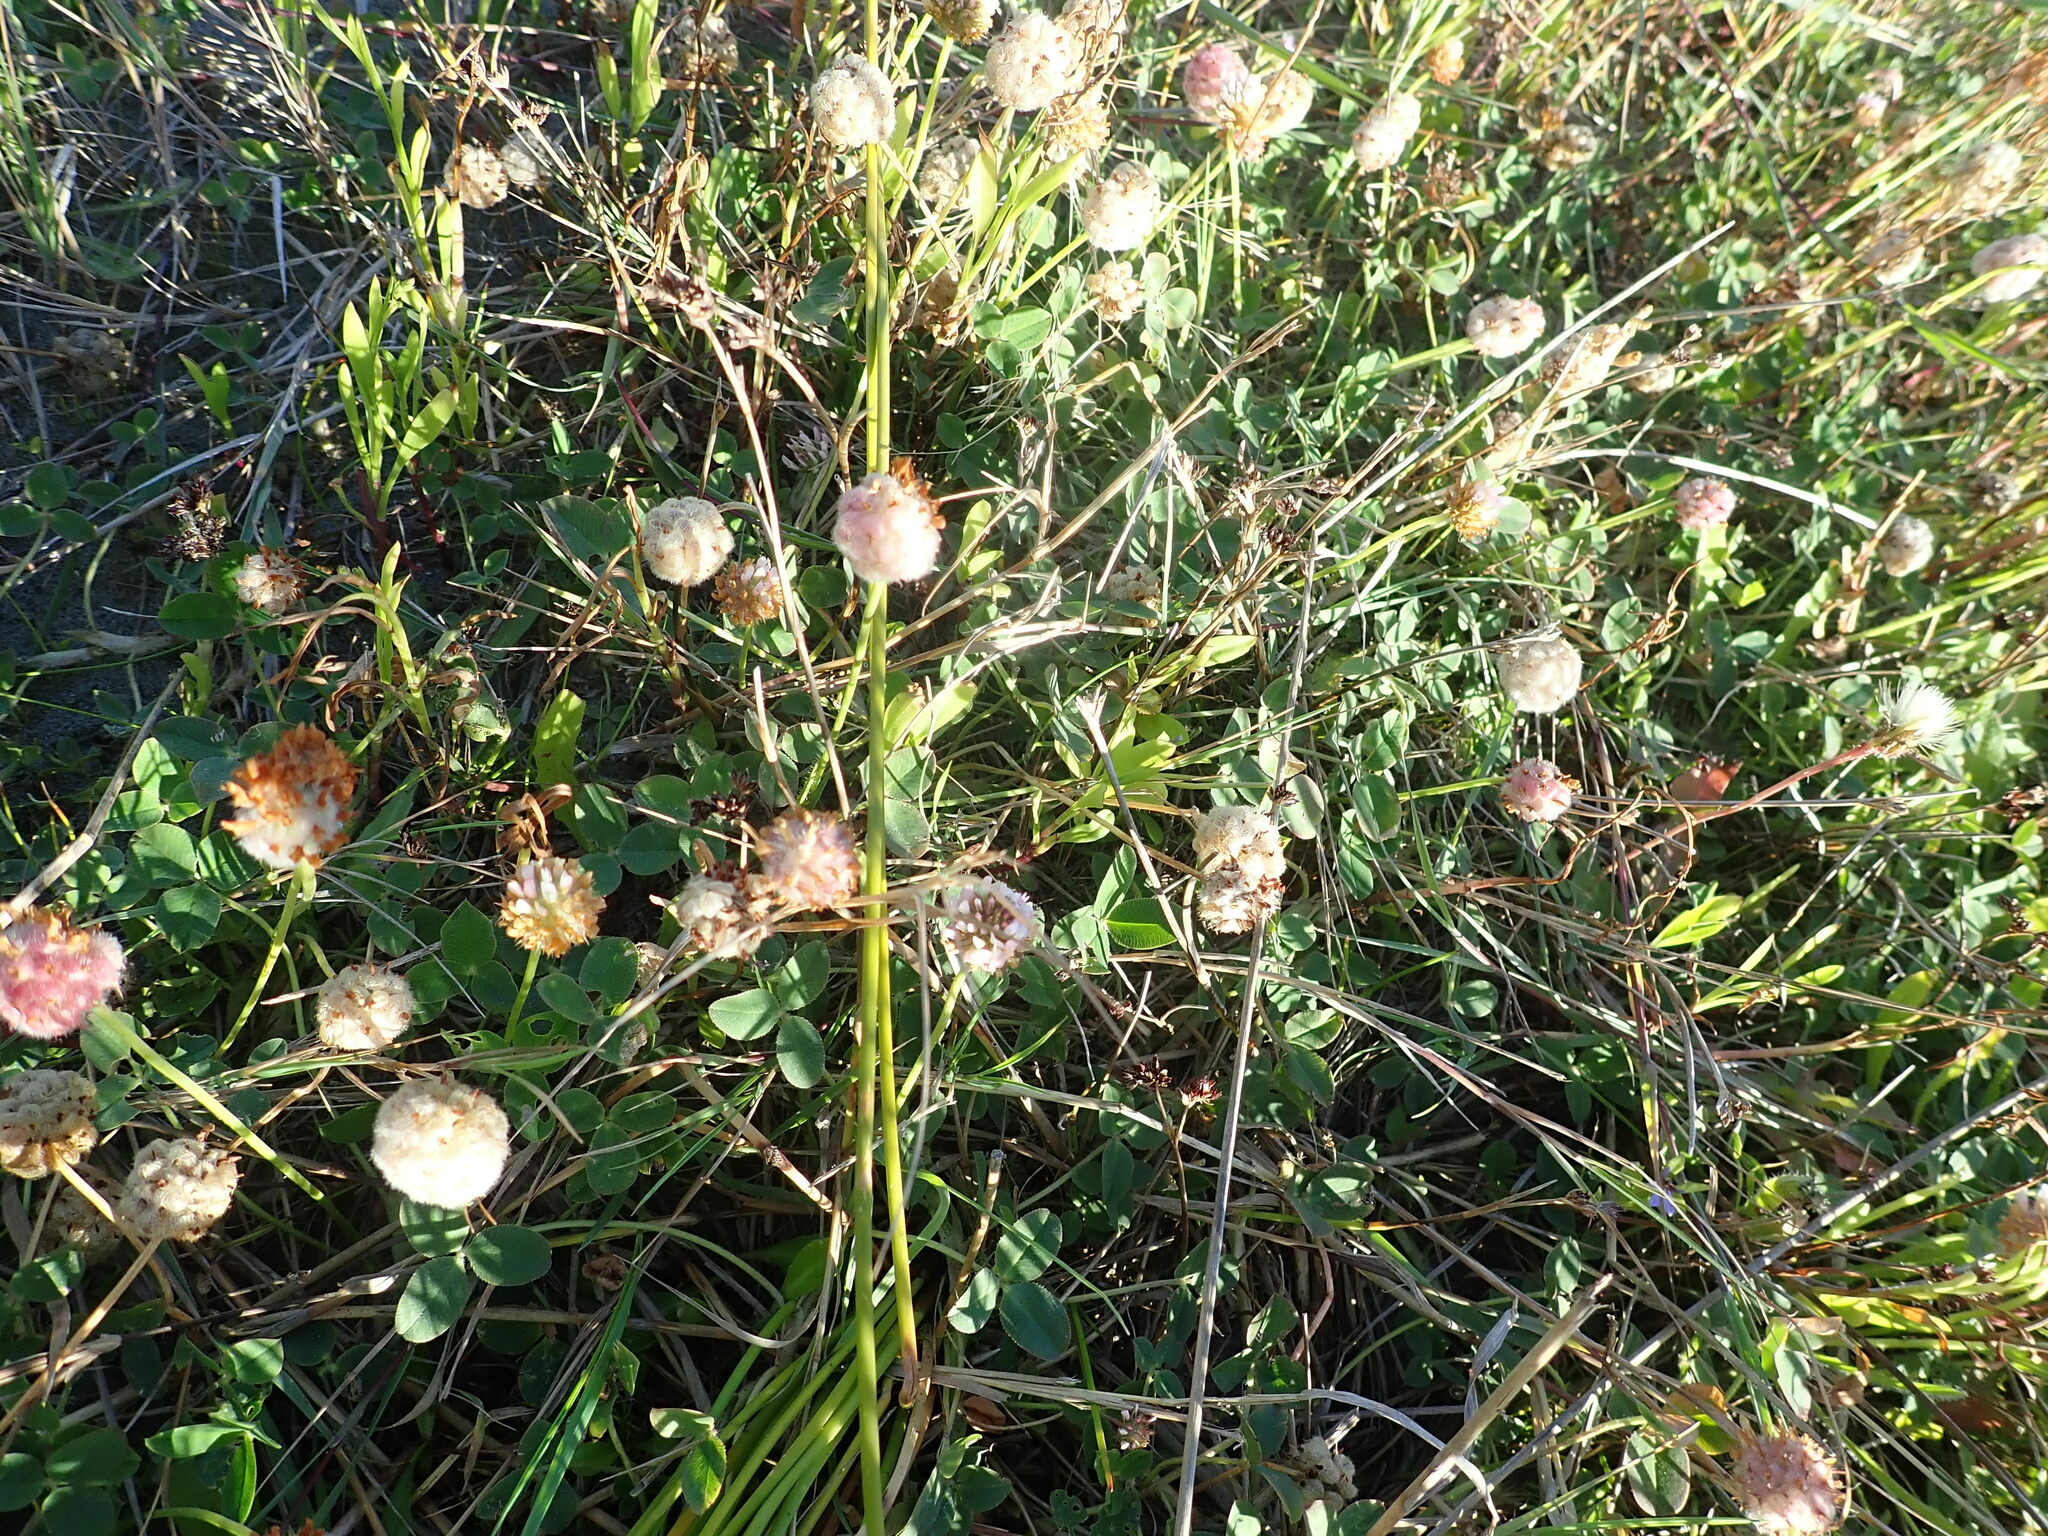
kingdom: Plantae
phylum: Tracheophyta
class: Magnoliopsida
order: Fabales
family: Fabaceae
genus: Trifolium
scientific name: Trifolium fragiferum
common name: Strawberry clover
